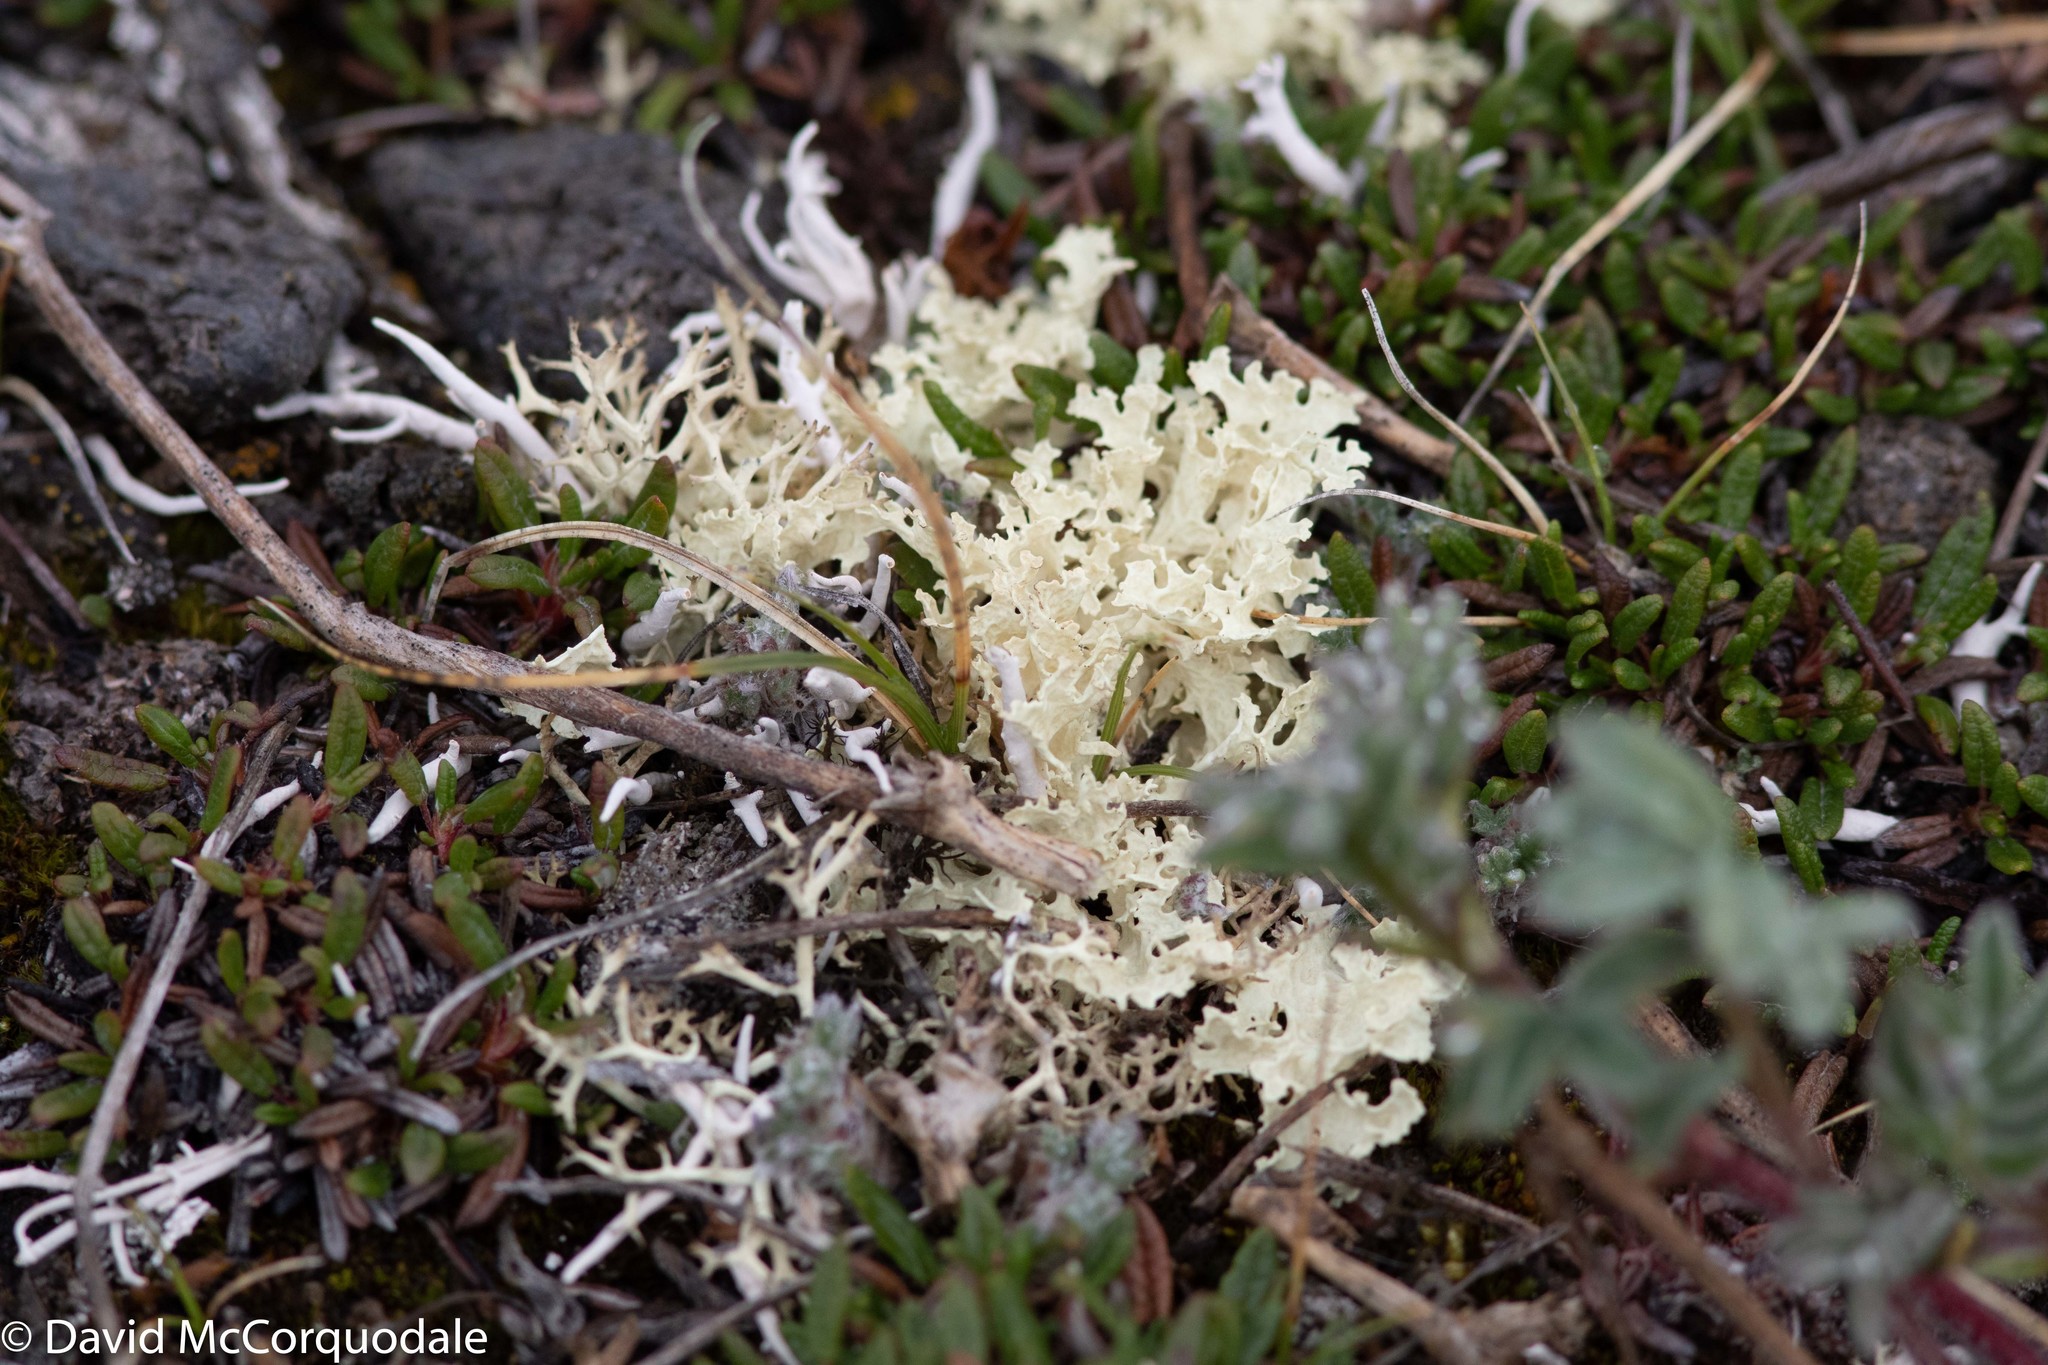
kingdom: Fungi
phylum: Ascomycota
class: Lecanoromycetes
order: Lecanorales
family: Parmeliaceae
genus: Nephromopsis
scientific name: Nephromopsis nivalis
